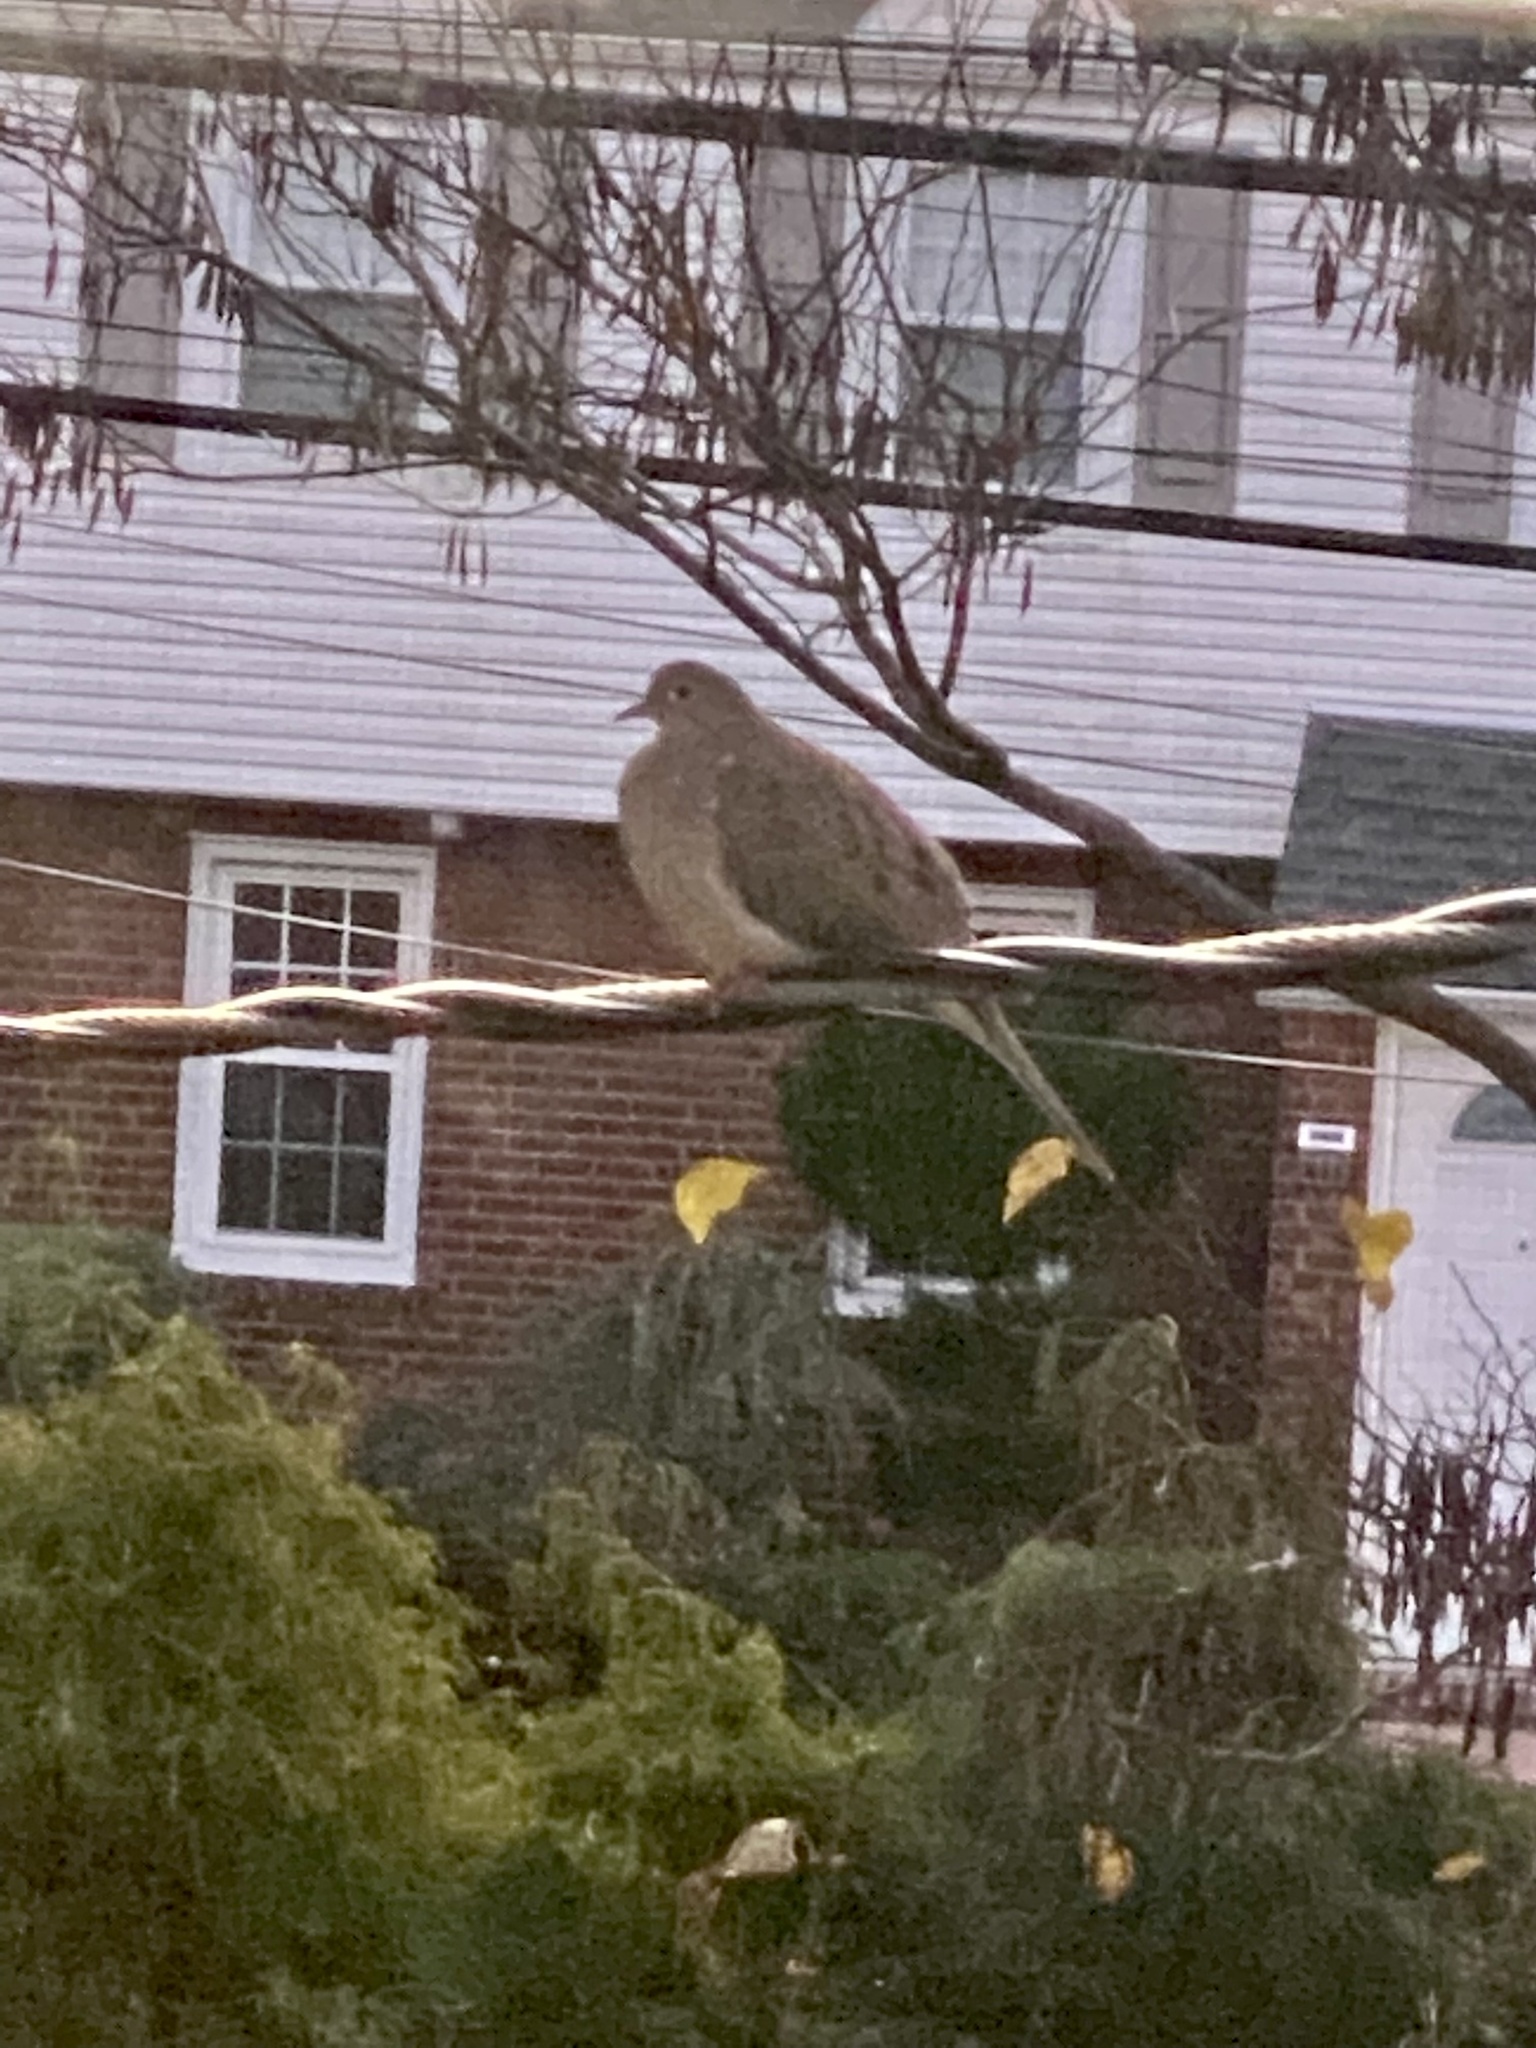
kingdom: Animalia
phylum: Chordata
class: Aves
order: Columbiformes
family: Columbidae
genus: Zenaida
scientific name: Zenaida macroura
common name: Mourning dove
